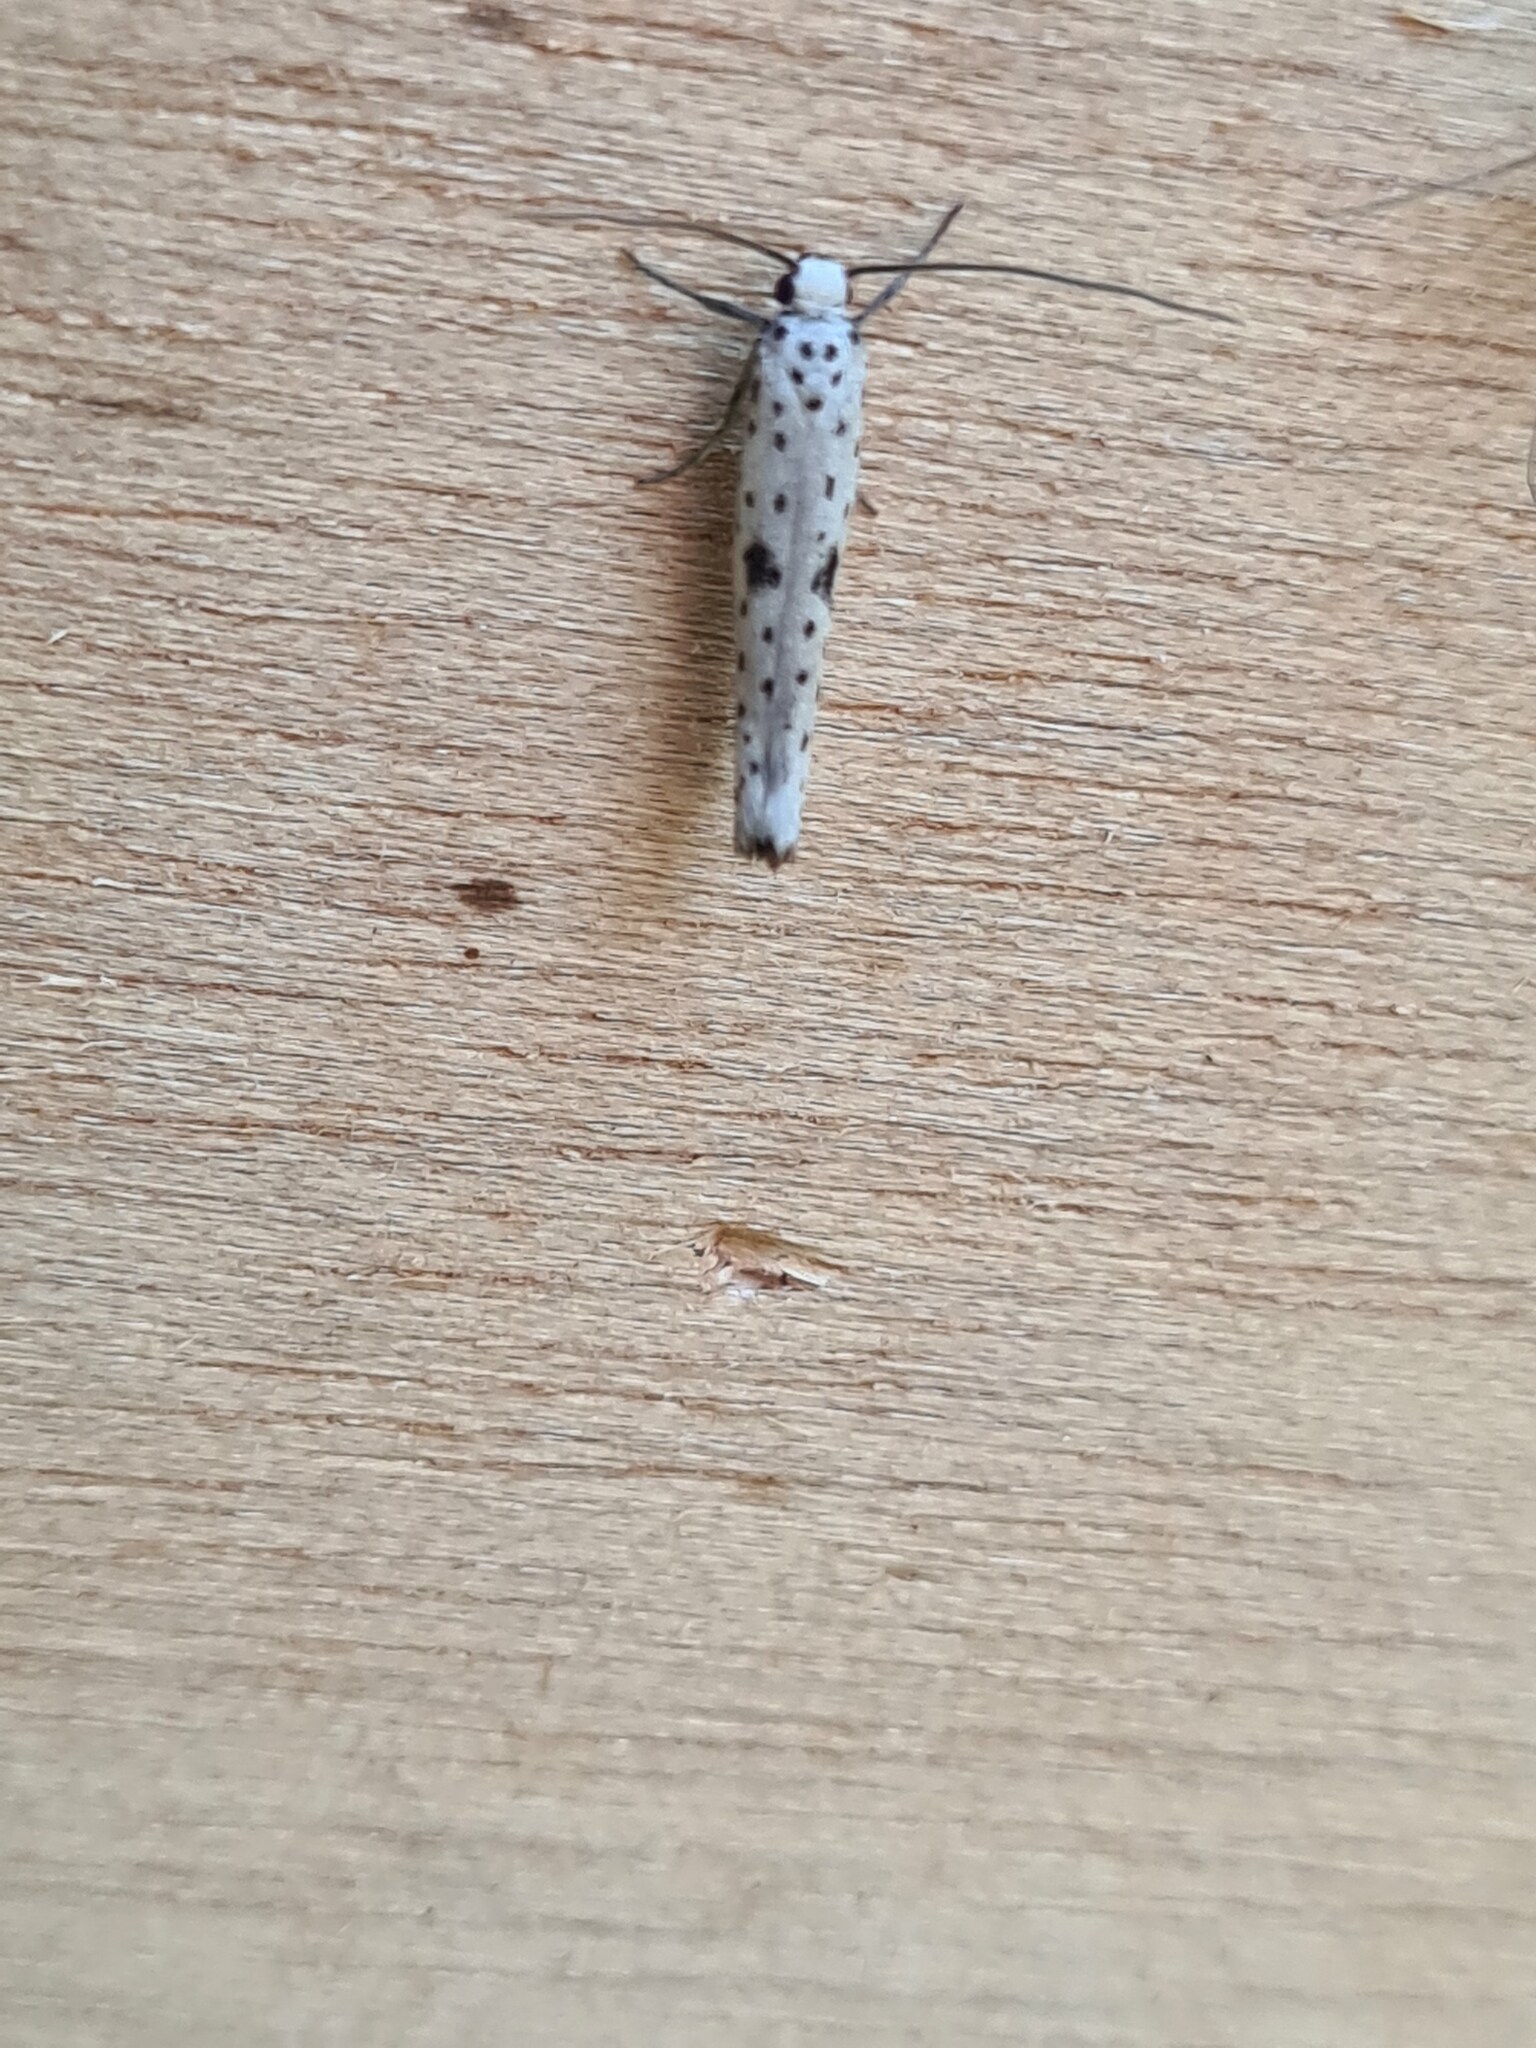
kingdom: Animalia
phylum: Arthropoda
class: Insecta
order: Lepidoptera
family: Yponomeutidae
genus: Yponomeuta
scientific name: Yponomeuta plumbella
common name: Black-tipped ermine
